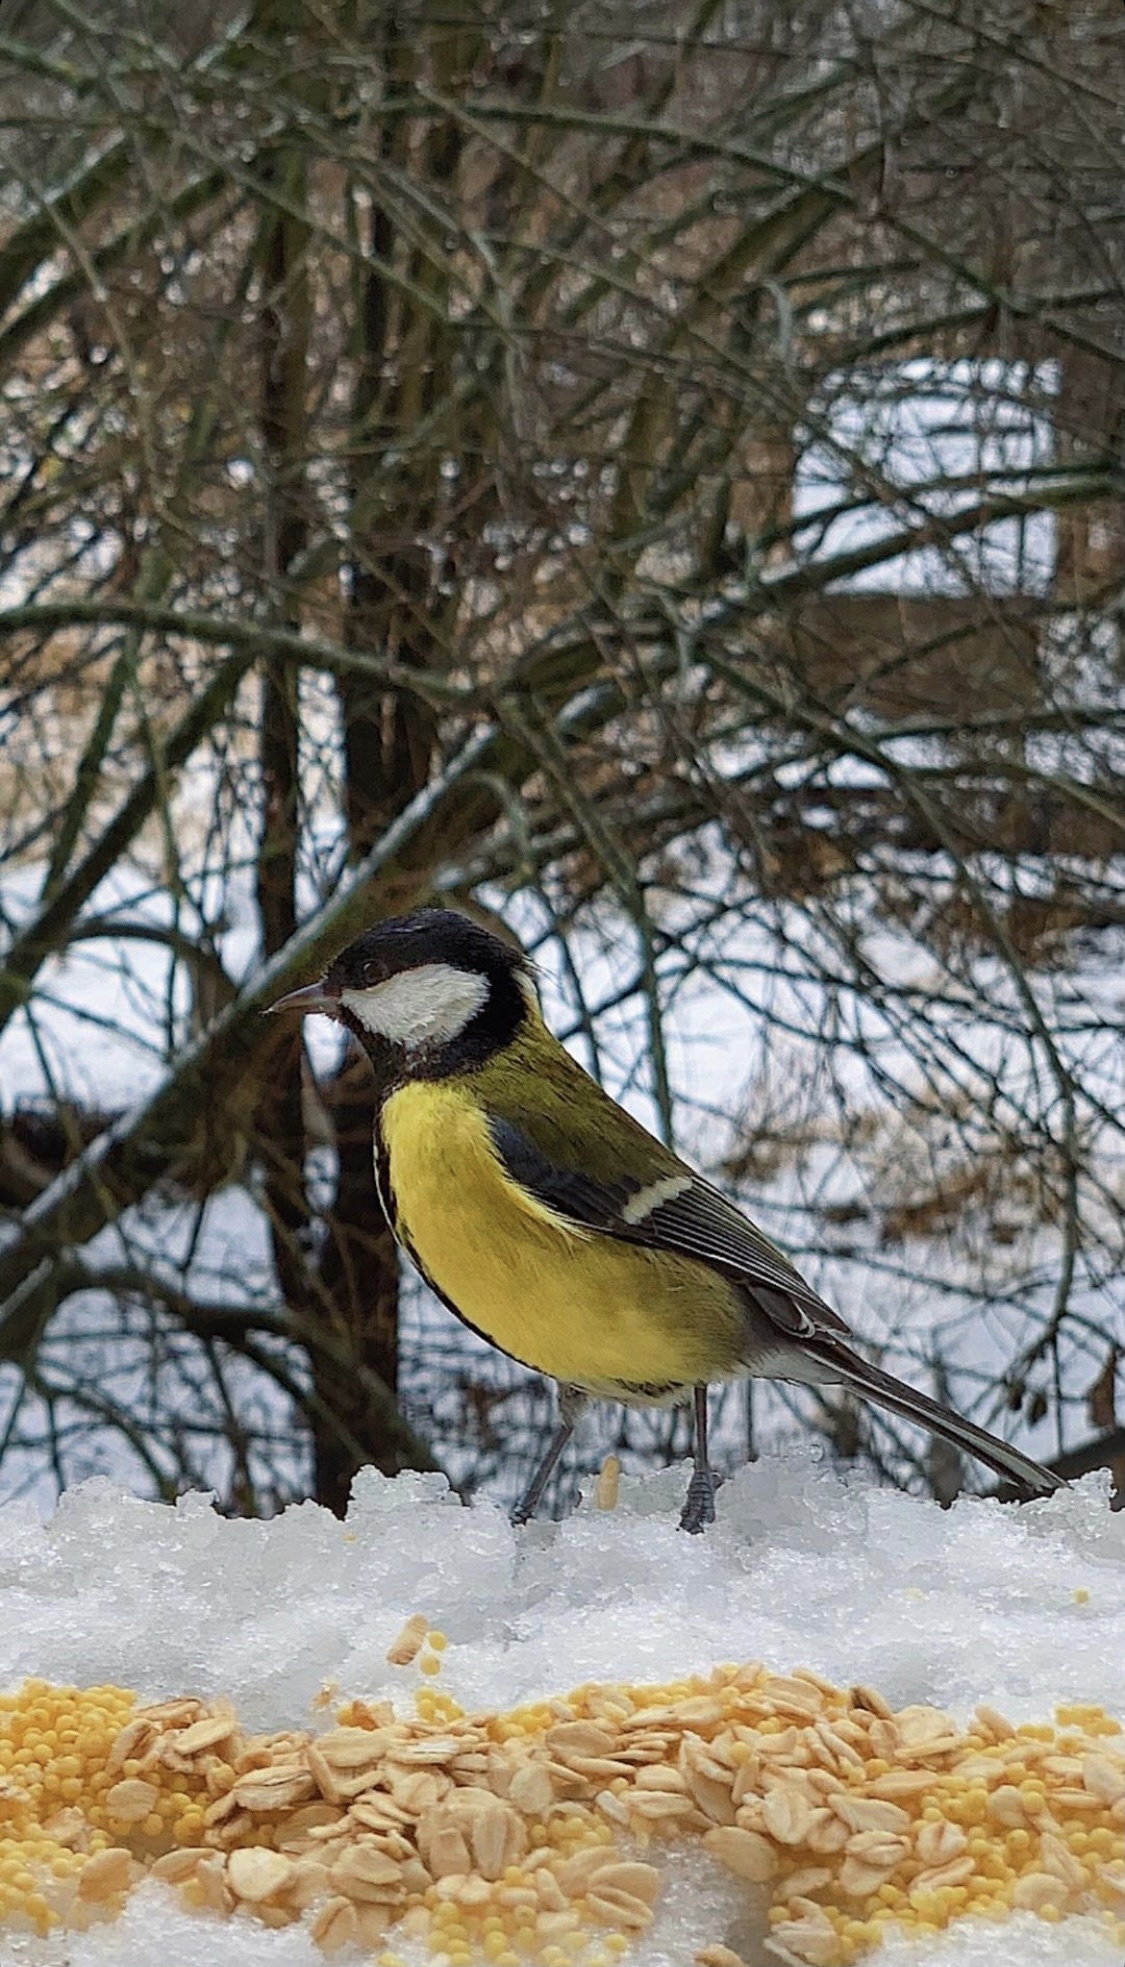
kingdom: Animalia
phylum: Chordata
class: Aves
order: Passeriformes
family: Paridae
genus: Parus
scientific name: Parus major
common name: Great tit
